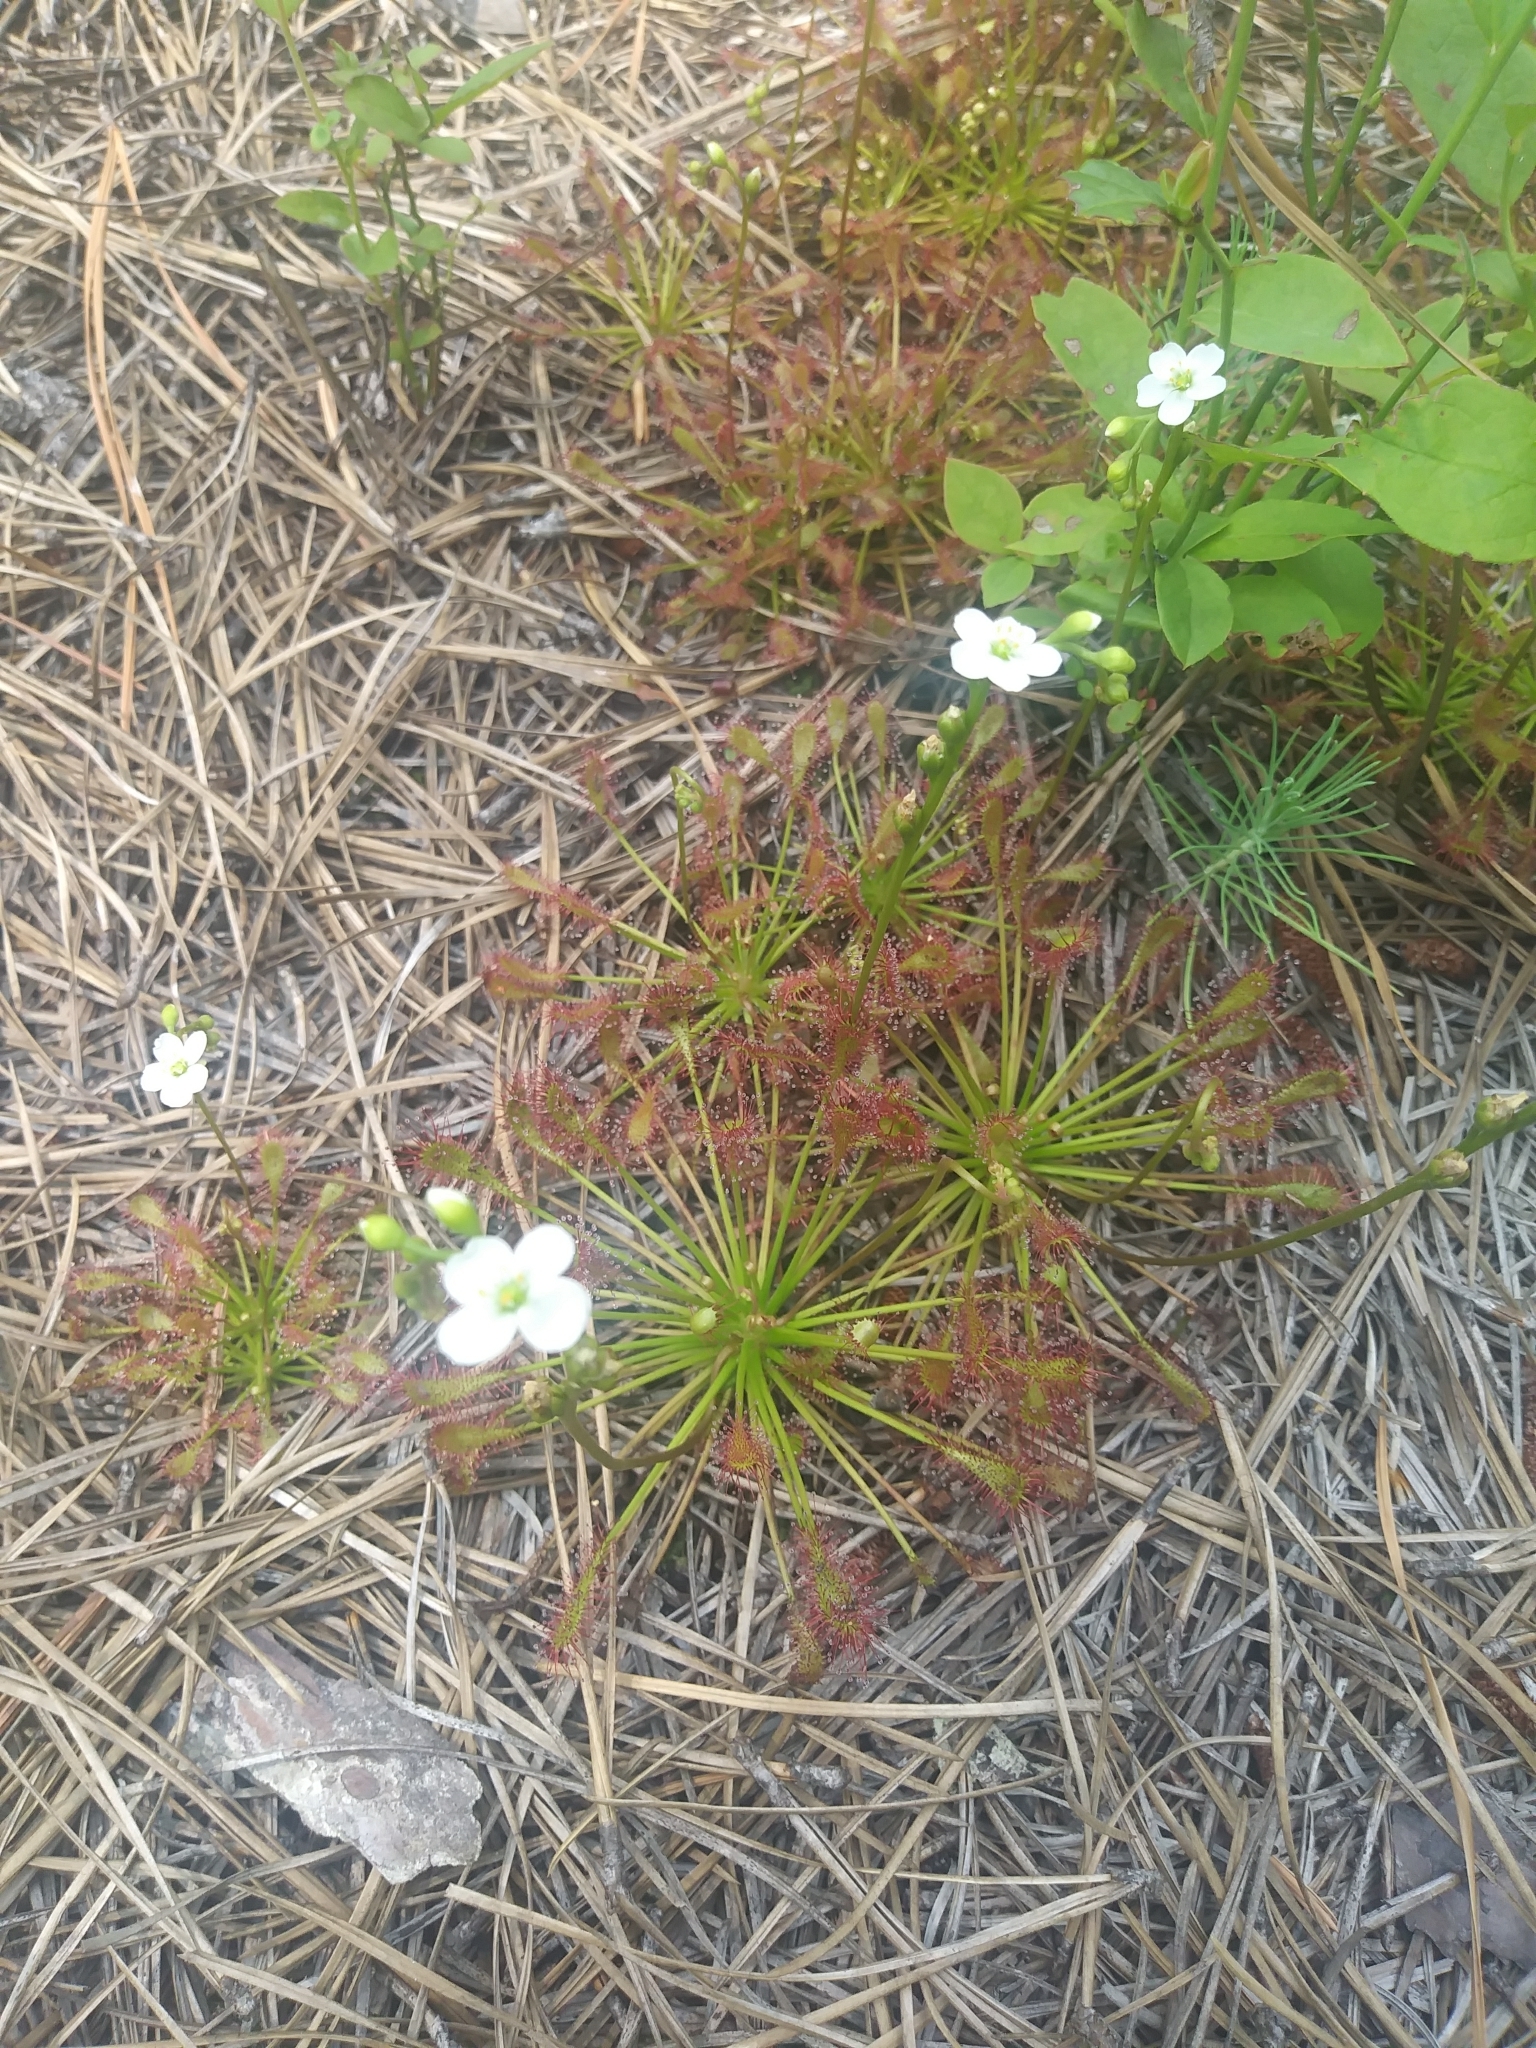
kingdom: Plantae
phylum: Tracheophyta
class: Magnoliopsida
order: Caryophyllales
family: Droseraceae
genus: Drosera
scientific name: Drosera intermedia
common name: Oblong-leaved sundew
